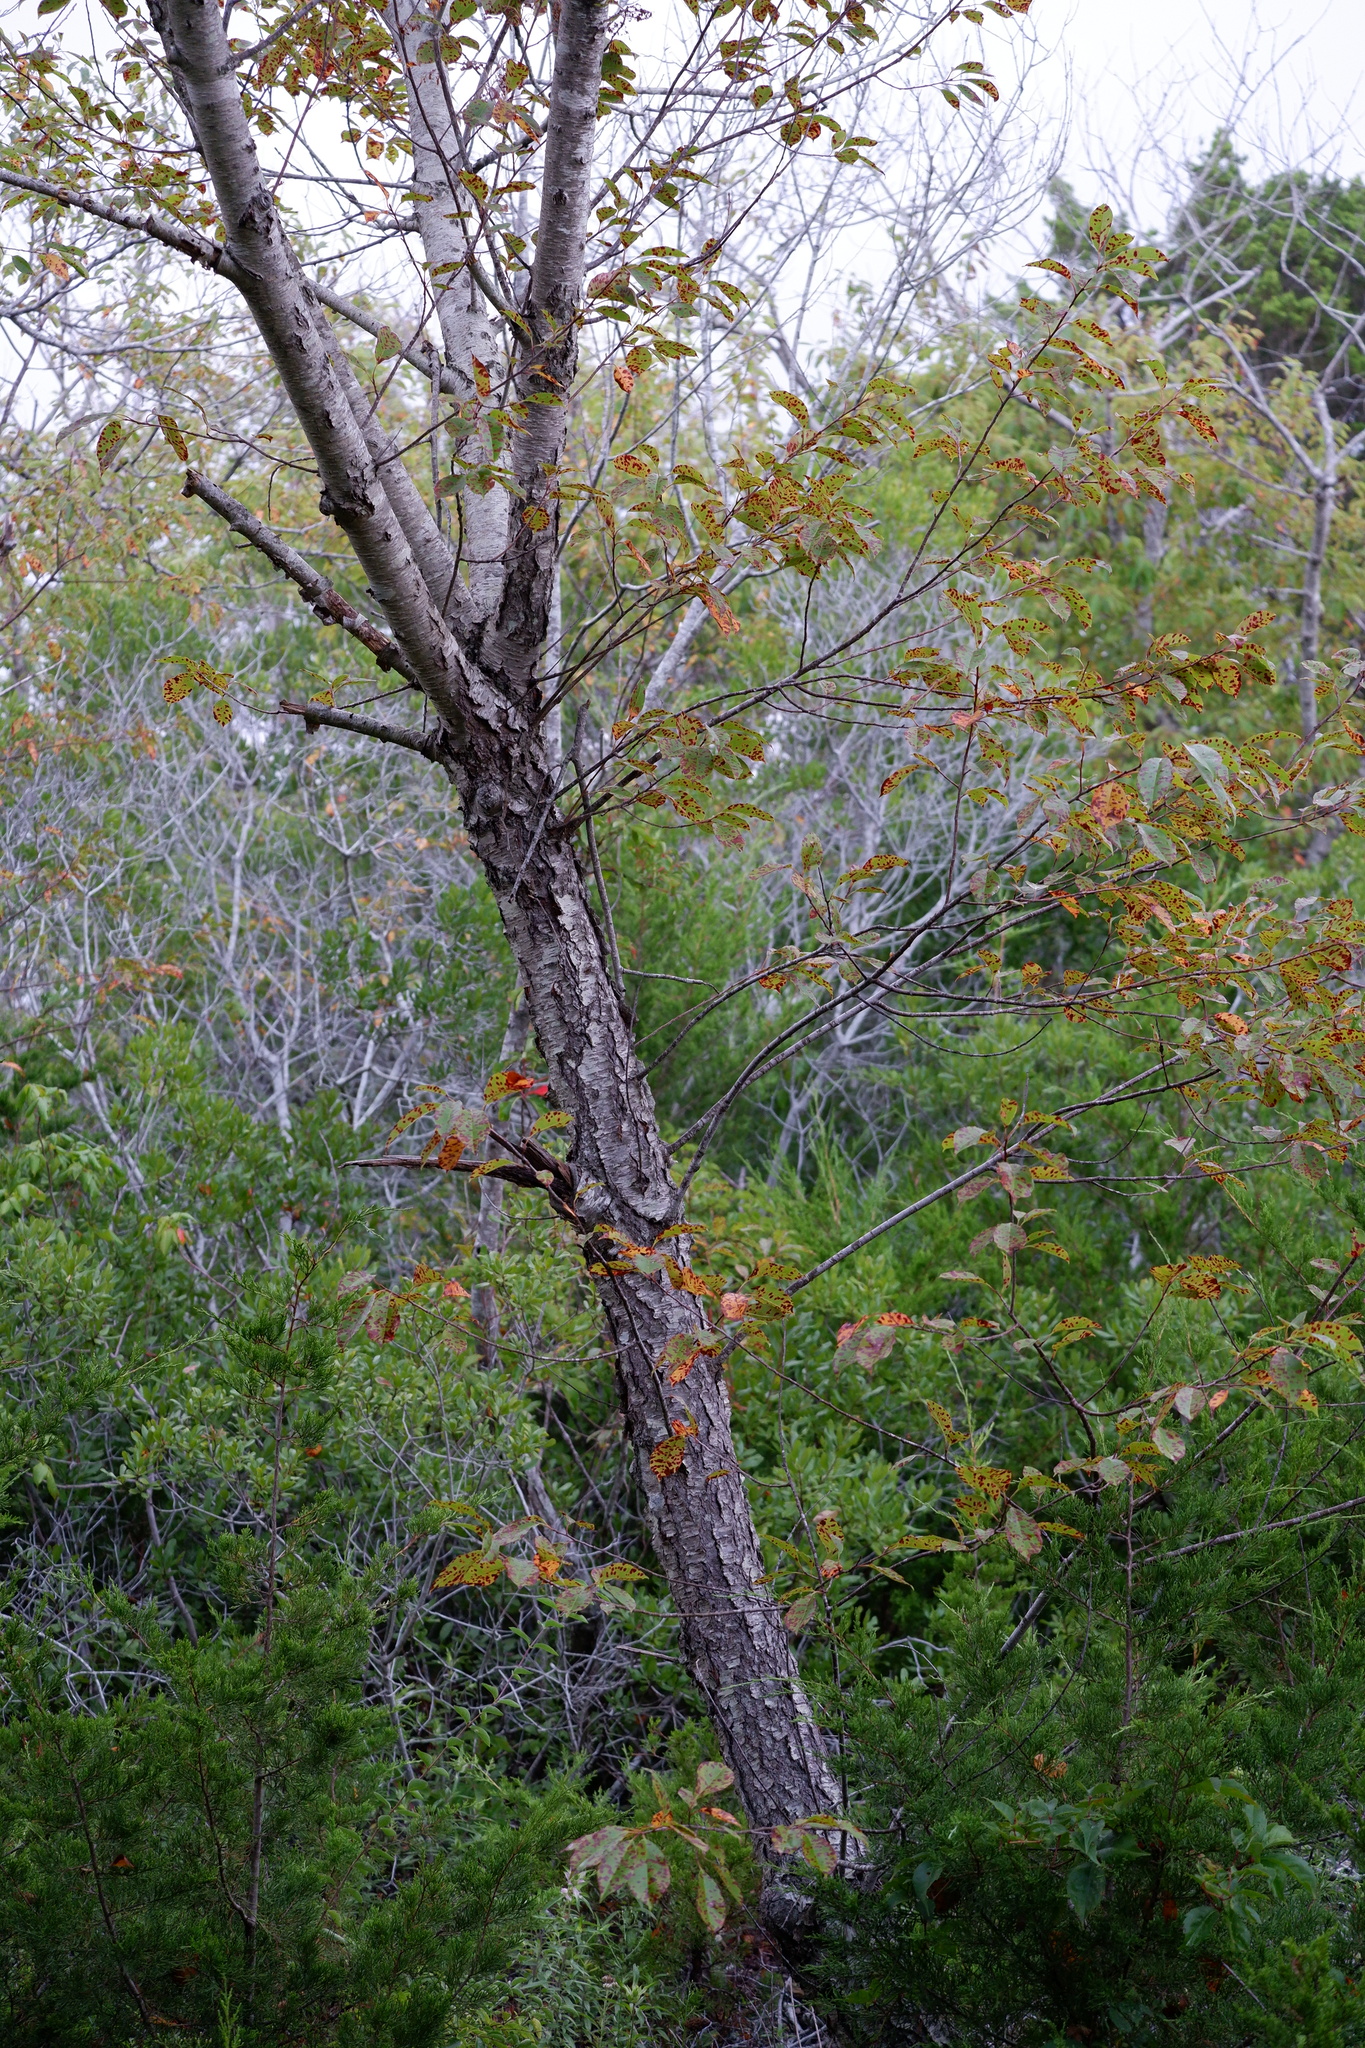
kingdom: Plantae
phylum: Tracheophyta
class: Magnoliopsida
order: Rosales
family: Rosaceae
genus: Prunus
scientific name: Prunus serotina
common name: Black cherry
